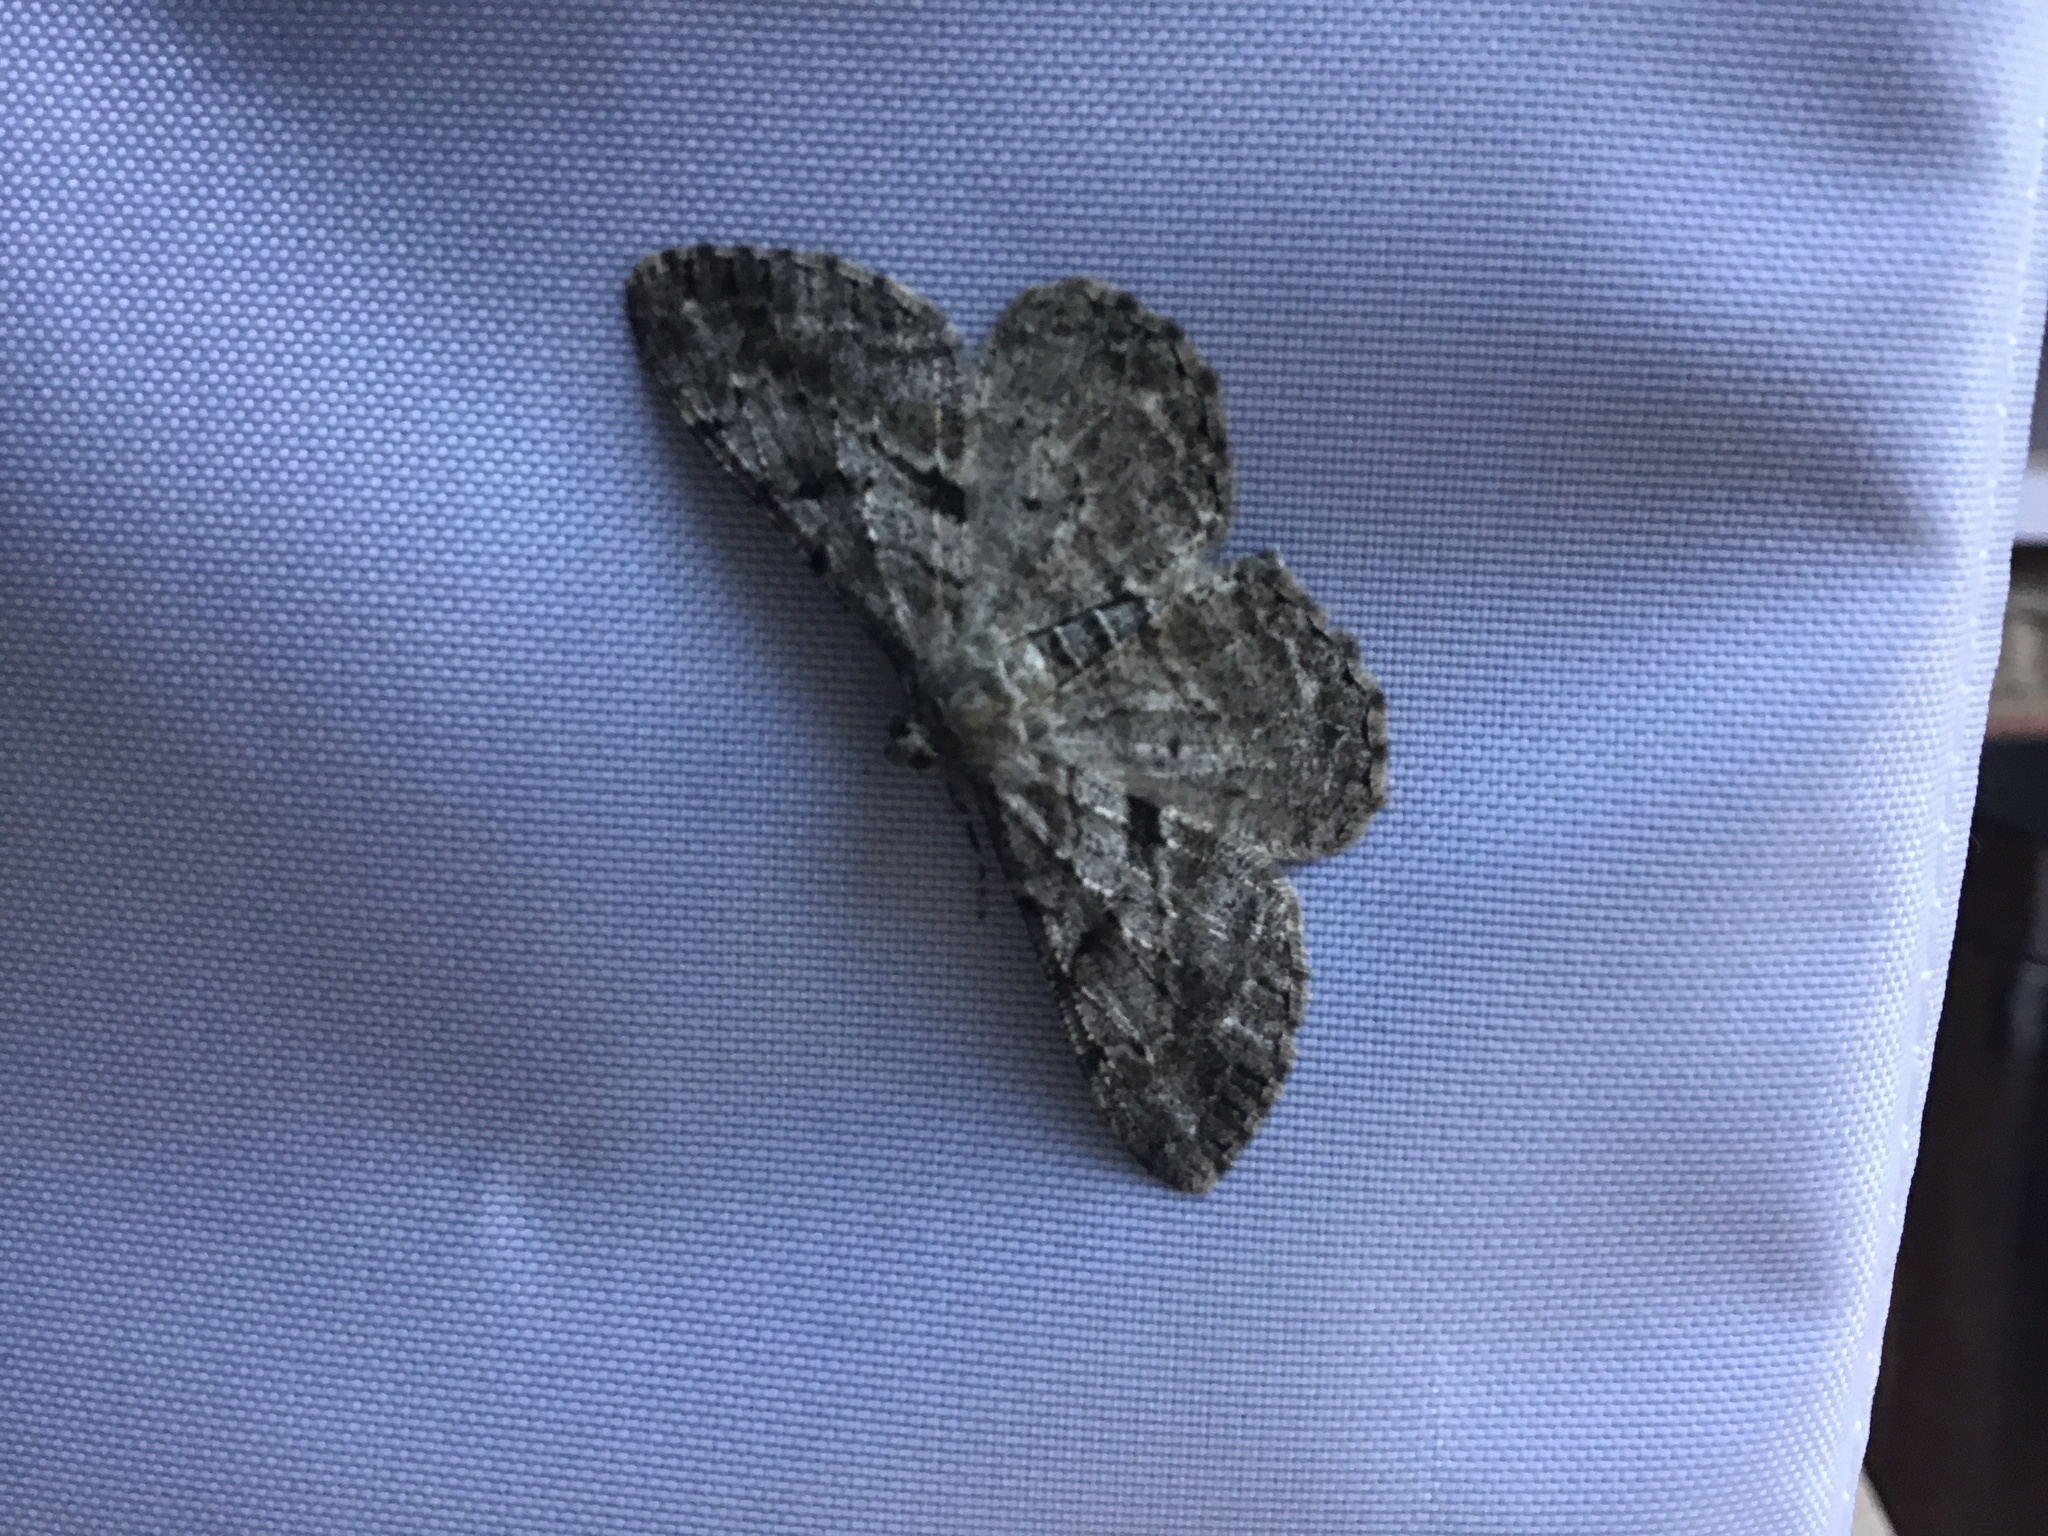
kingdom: Animalia
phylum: Arthropoda
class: Insecta
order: Lepidoptera
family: Geometridae
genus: Peribatodes
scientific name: Peribatodes rhomboidaria
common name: Willow beauty
